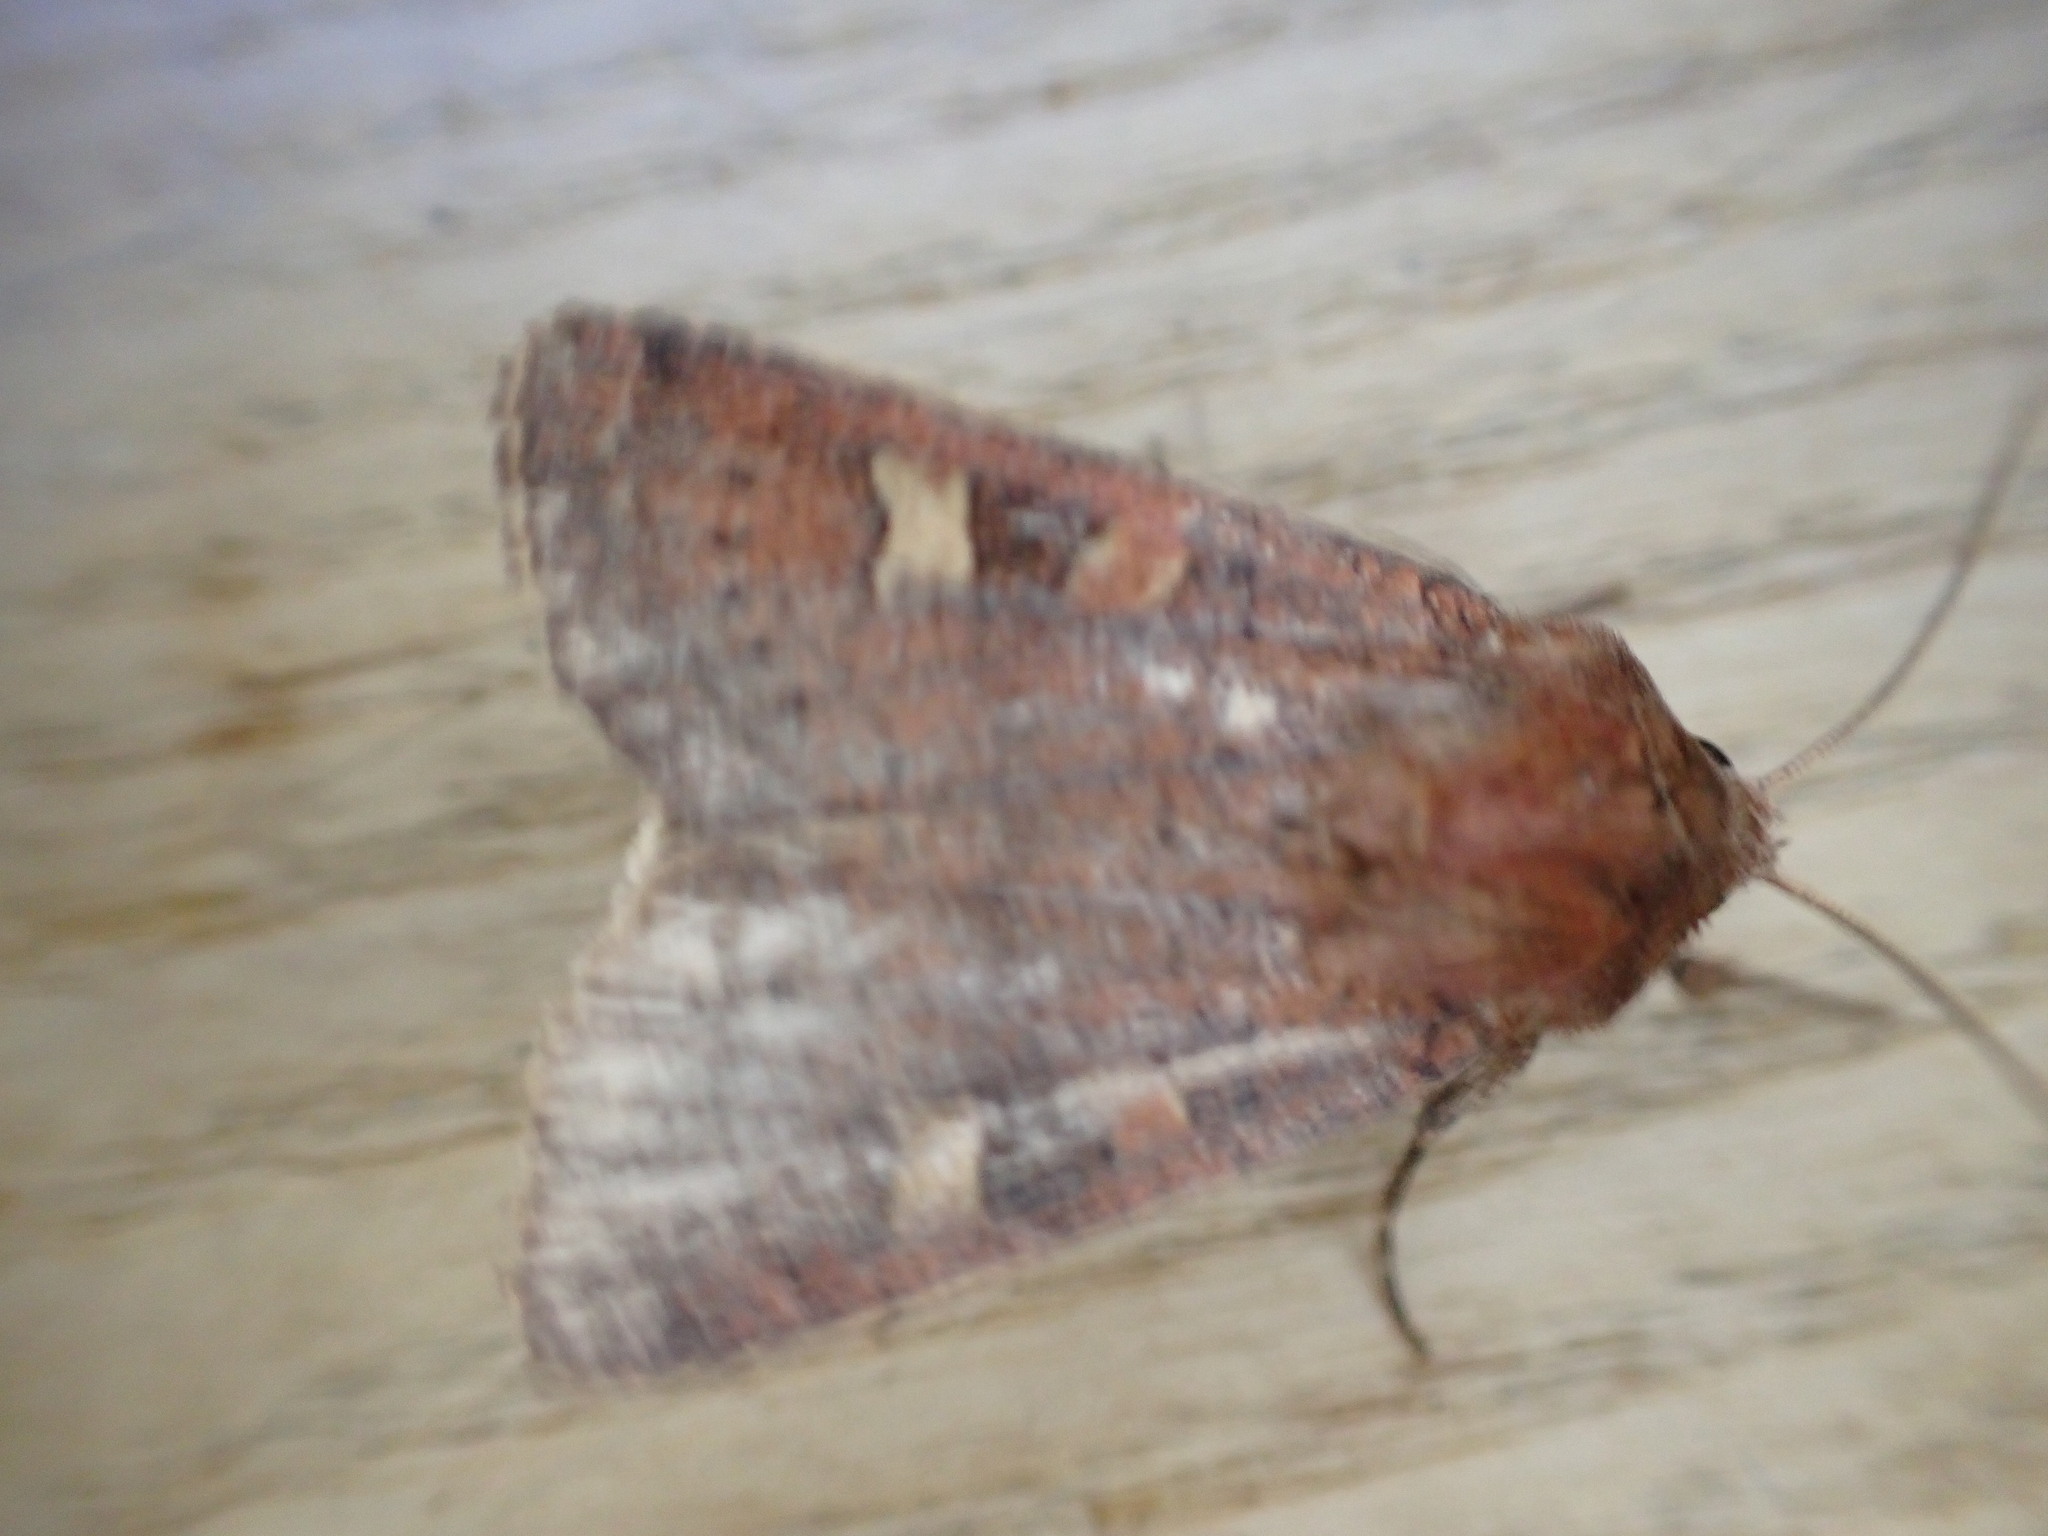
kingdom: Animalia
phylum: Arthropoda
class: Insecta
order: Lepidoptera
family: Noctuidae
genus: Xestia
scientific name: Xestia xanthographa
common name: Square-spot rustic
